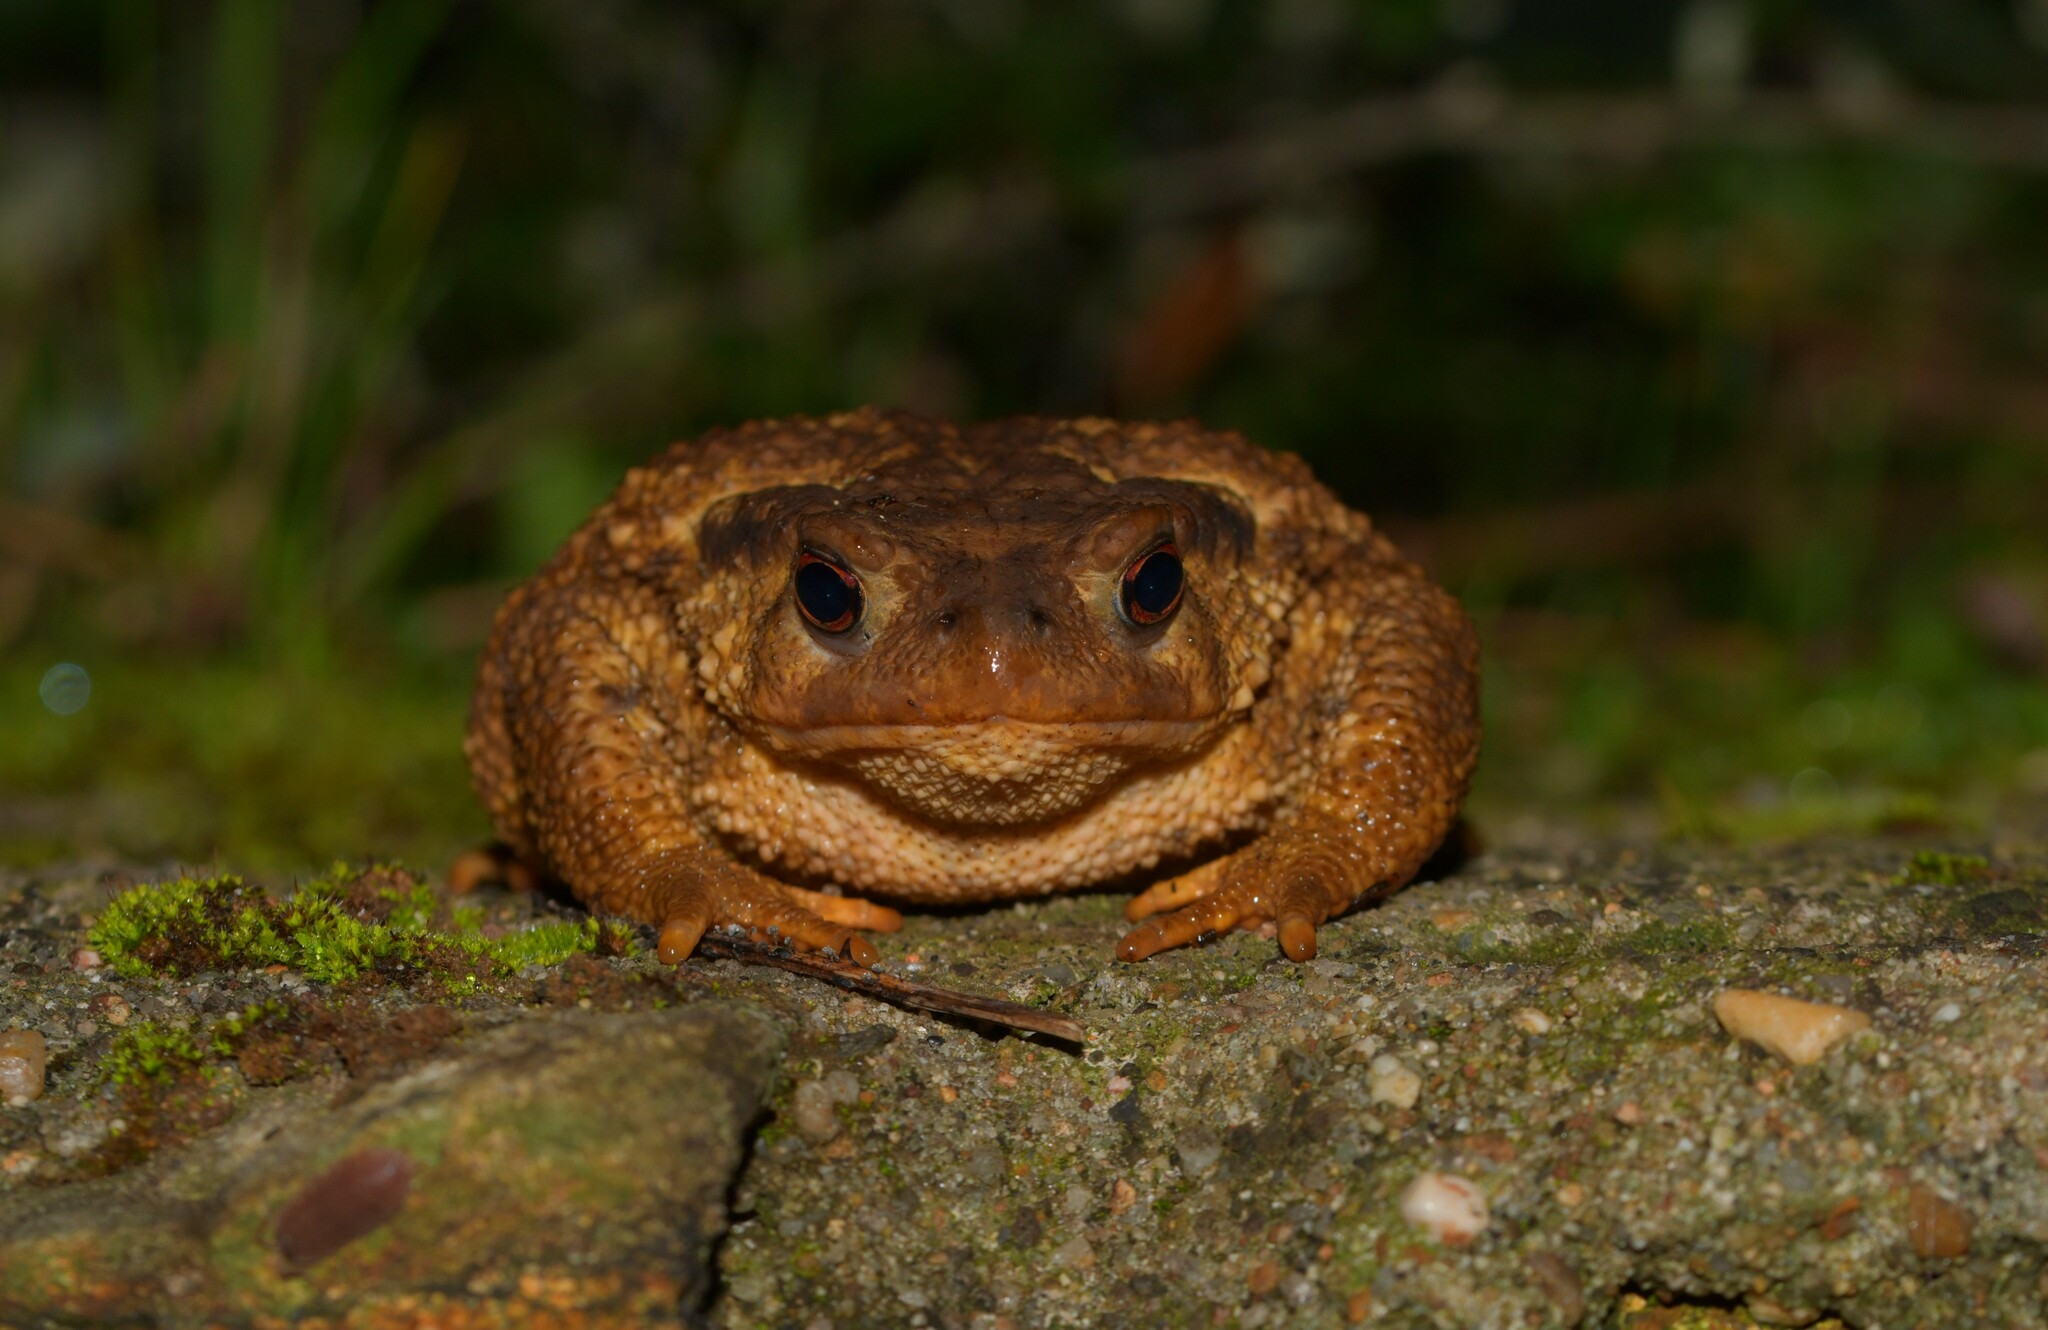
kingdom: Animalia
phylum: Chordata
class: Amphibia
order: Anura
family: Bufonidae
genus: Bufo
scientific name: Bufo spinosus
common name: Western common toad
